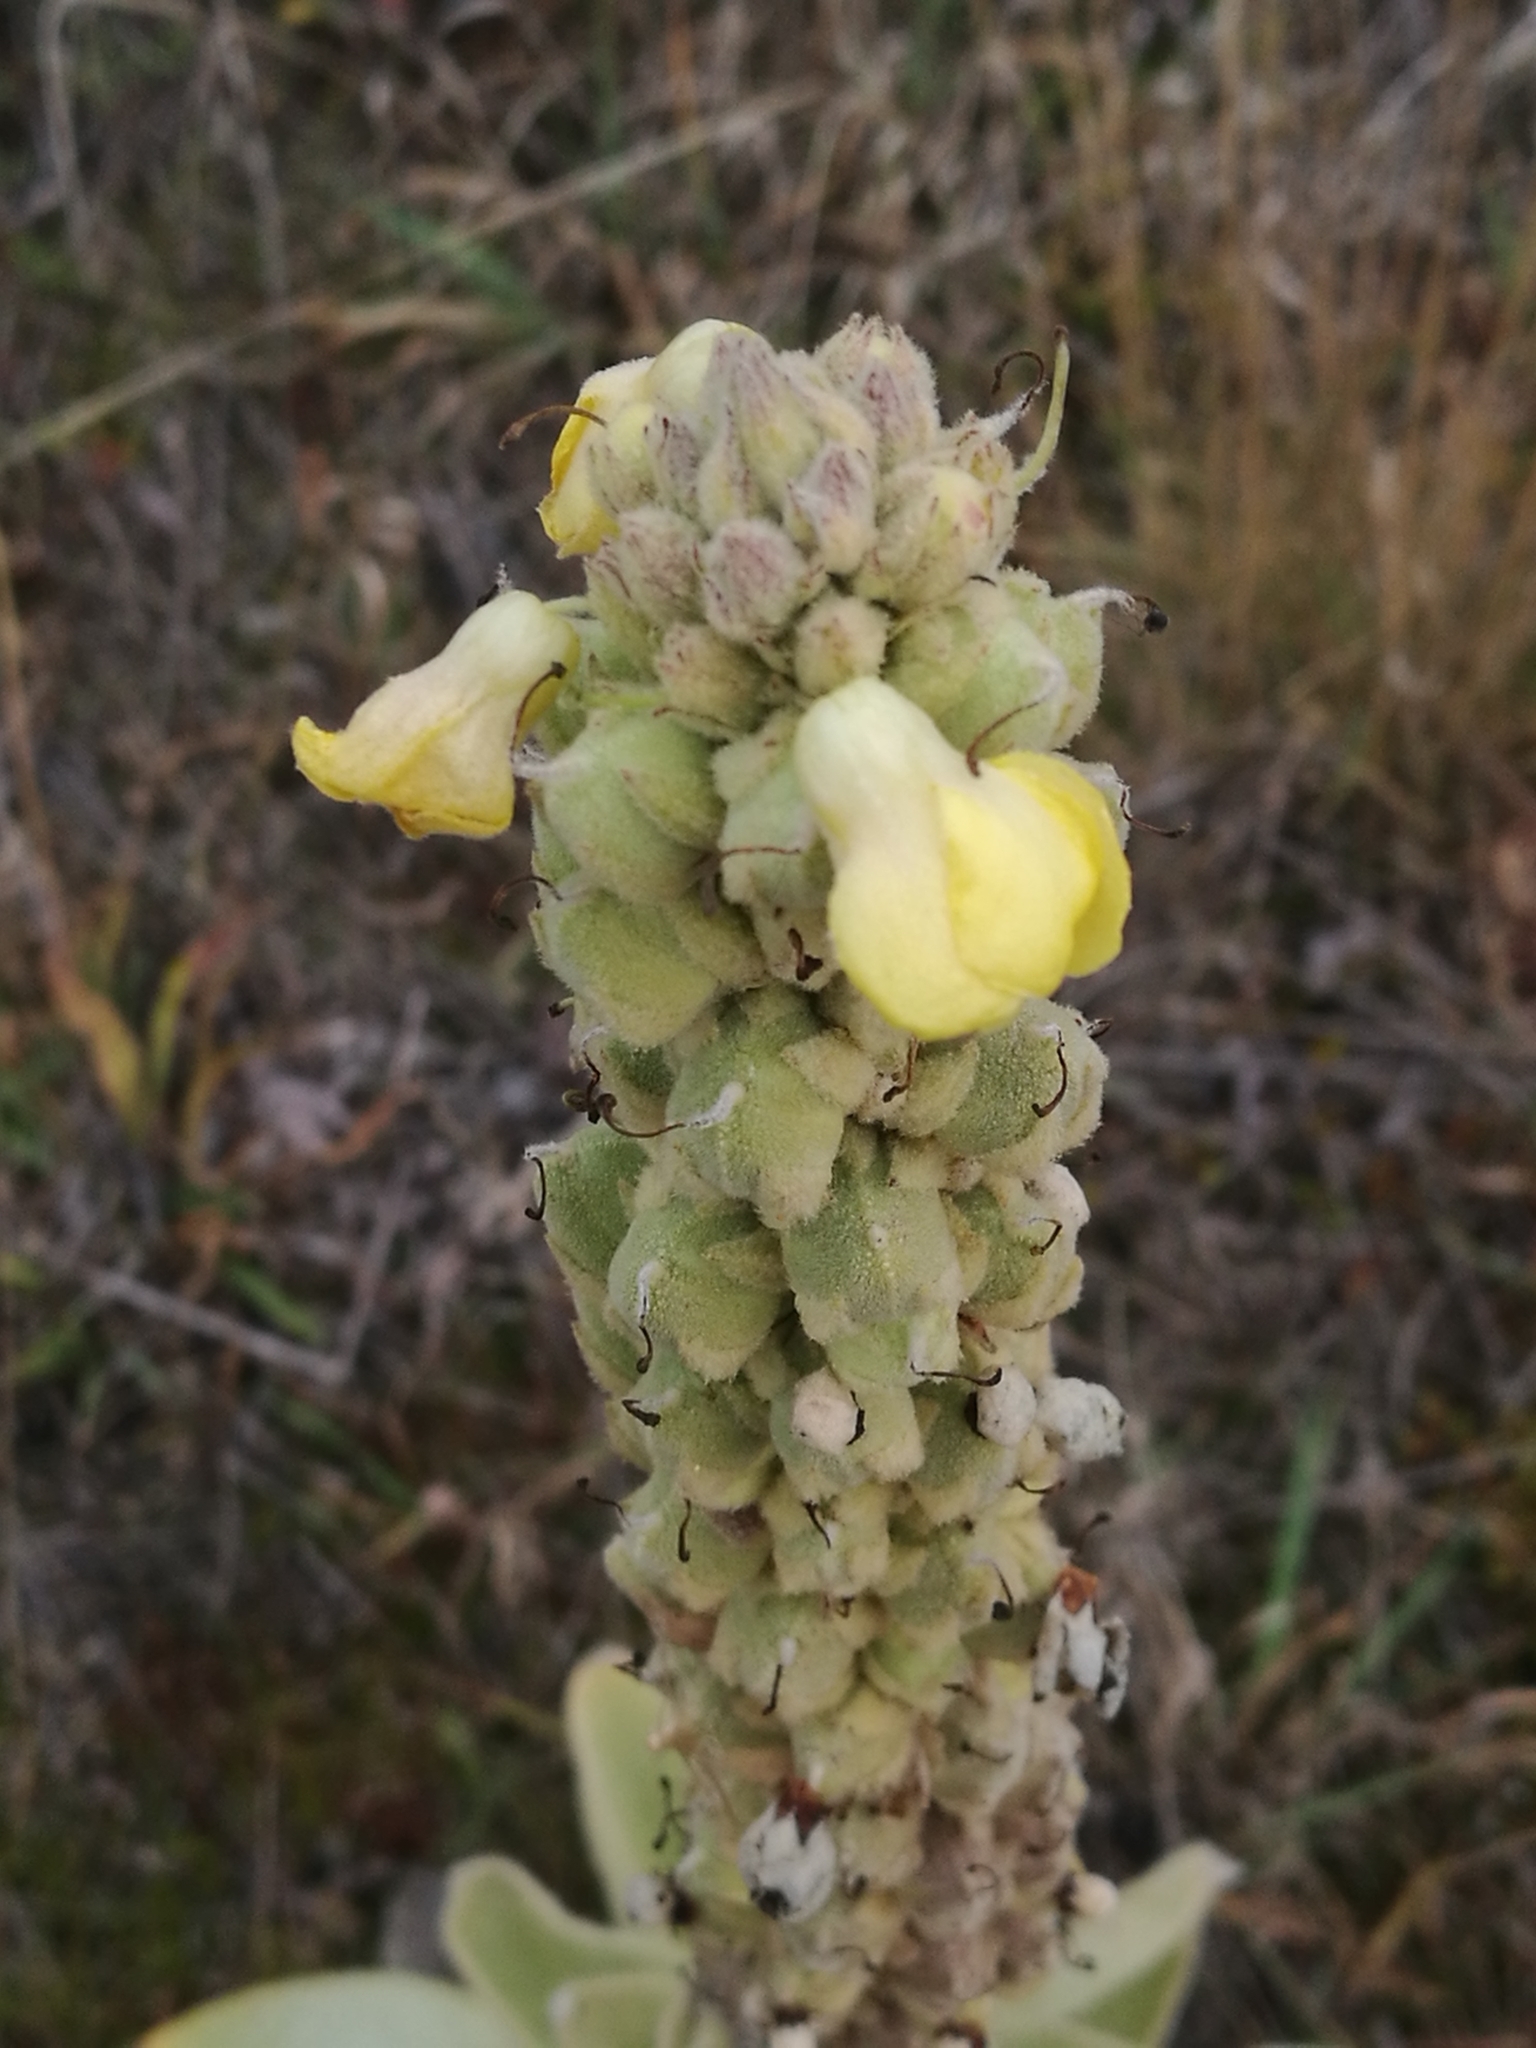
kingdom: Plantae
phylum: Tracheophyta
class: Magnoliopsida
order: Lamiales
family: Scrophulariaceae
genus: Verbascum
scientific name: Verbascum thapsus
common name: Common mullein
